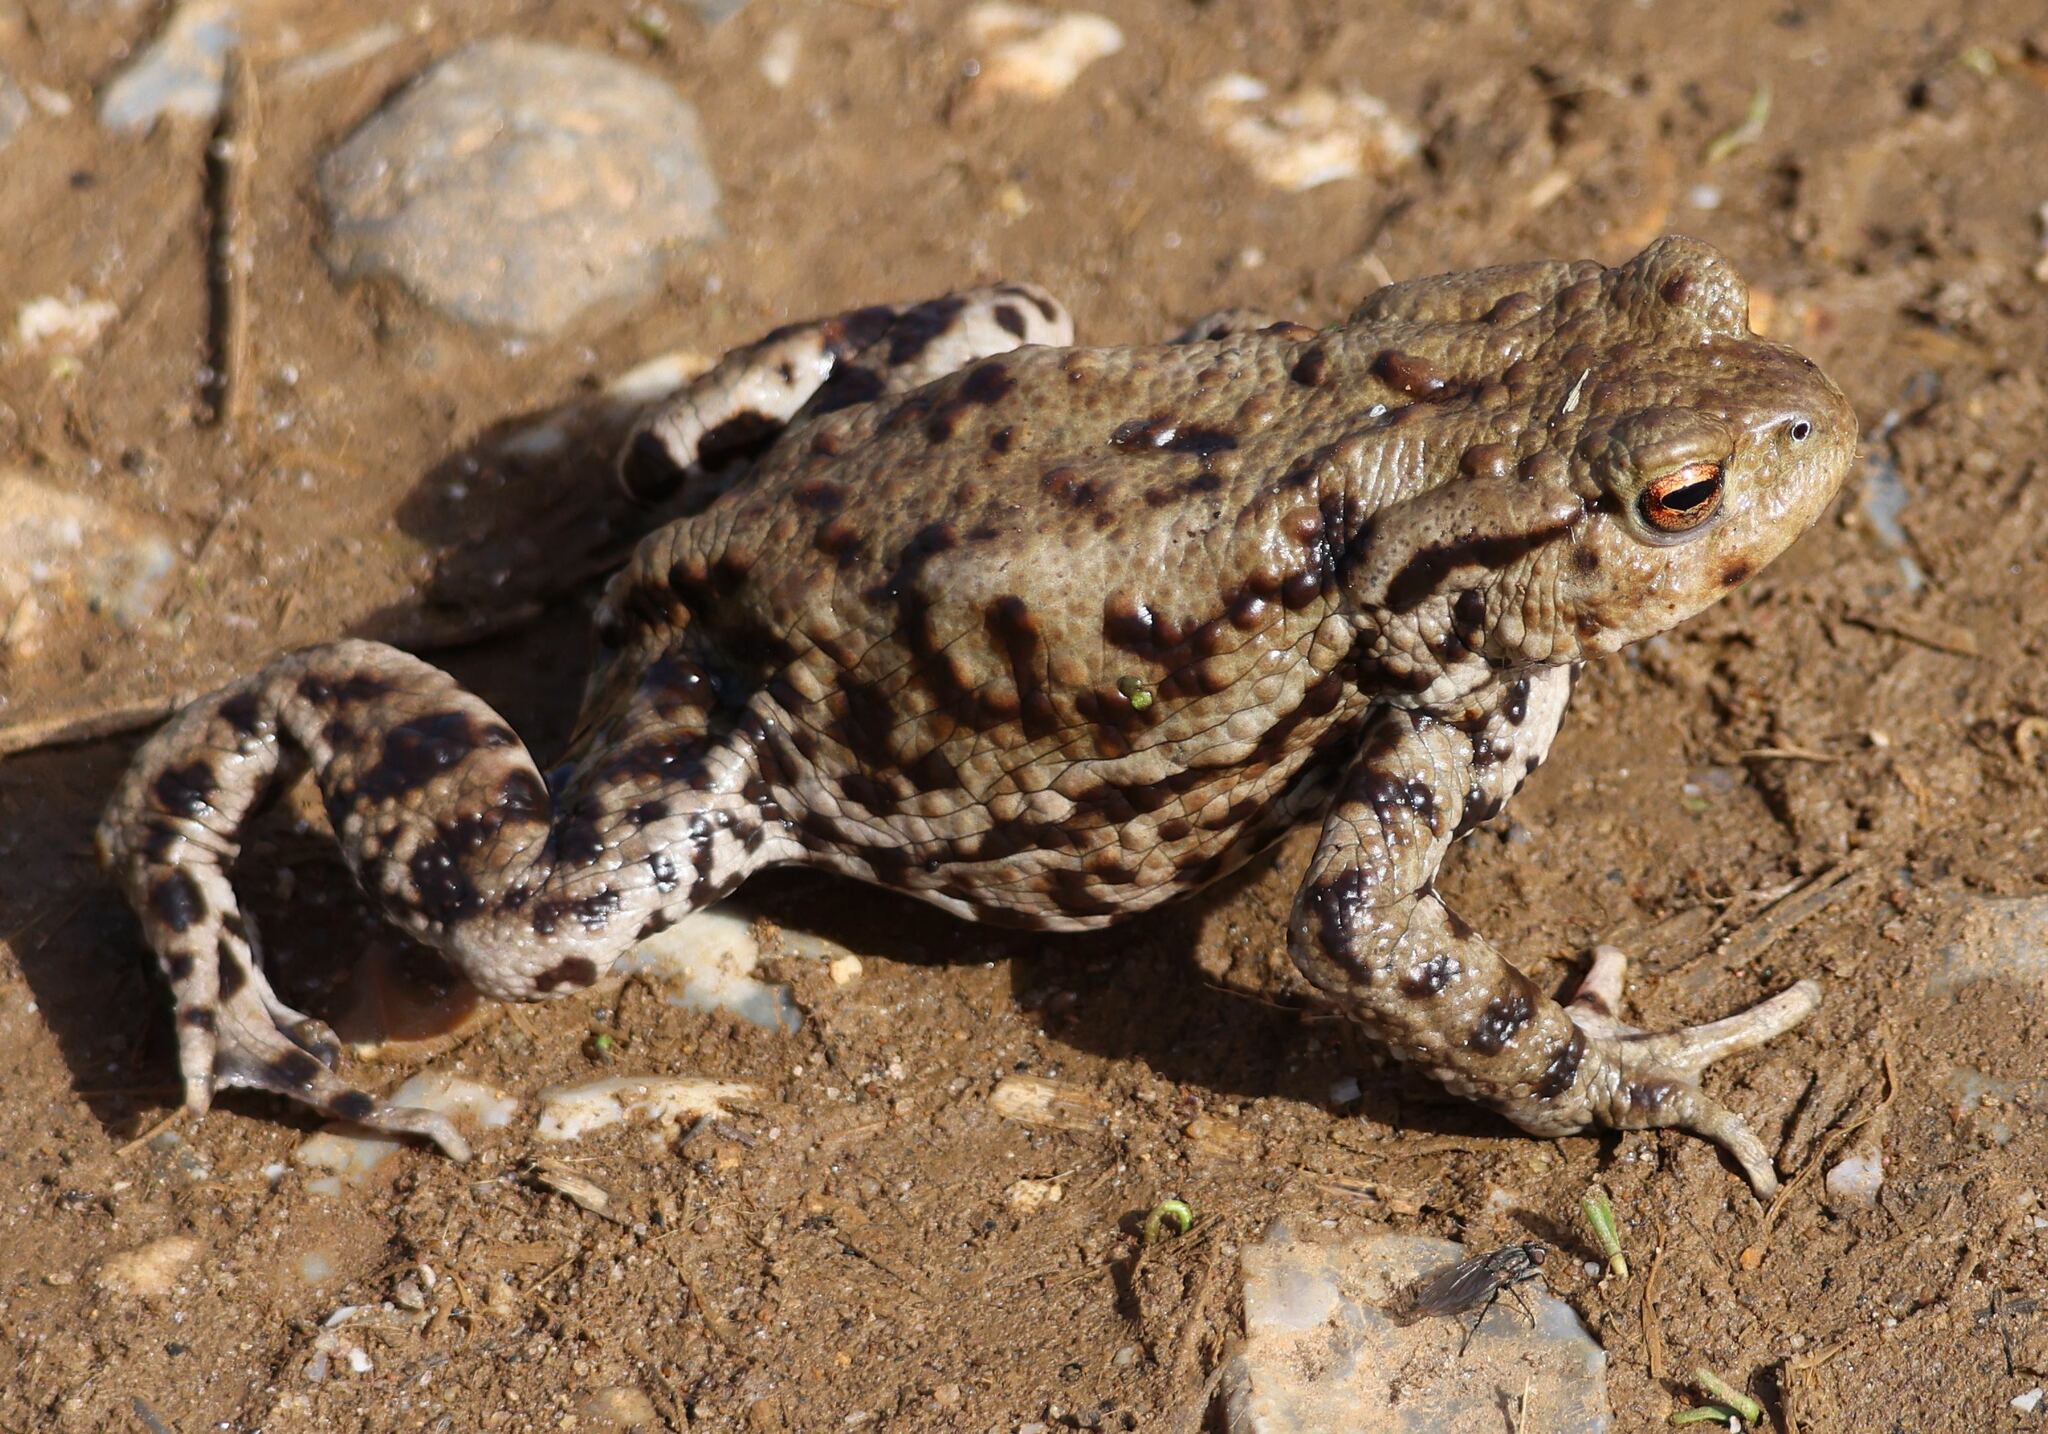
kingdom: Animalia
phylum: Chordata
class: Amphibia
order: Anura
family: Bufonidae
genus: Bufo
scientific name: Bufo bufo
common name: Common toad
